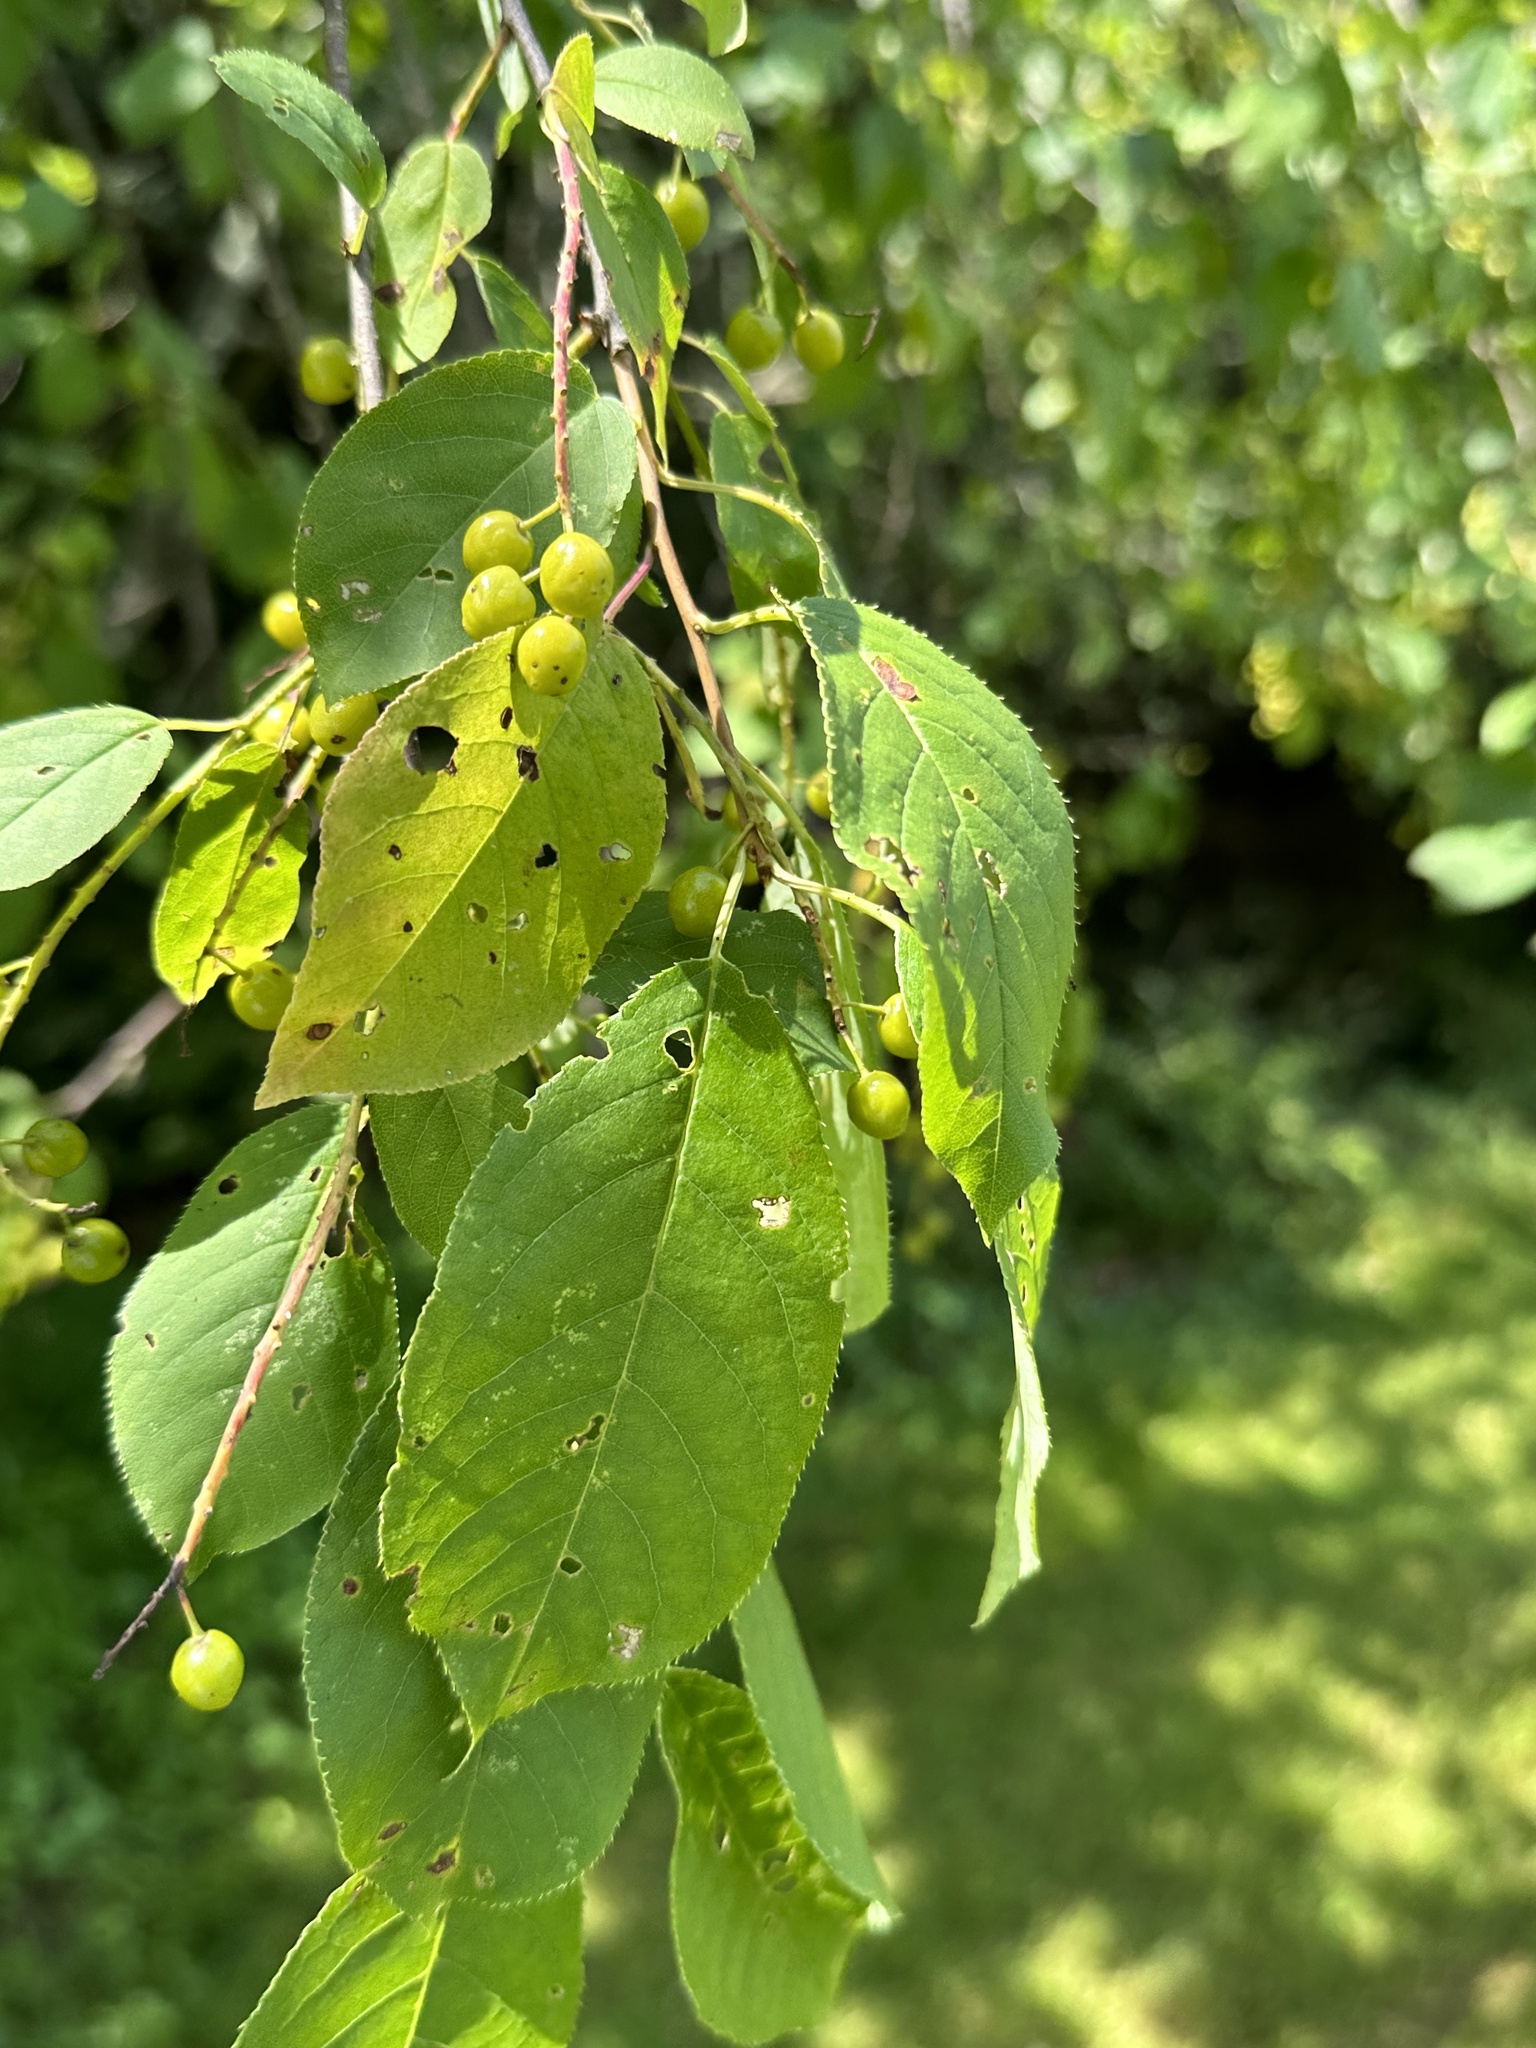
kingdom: Plantae
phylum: Tracheophyta
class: Magnoliopsida
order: Rosales
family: Rosaceae
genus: Prunus
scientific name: Prunus virginiana
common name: Chokecherry
